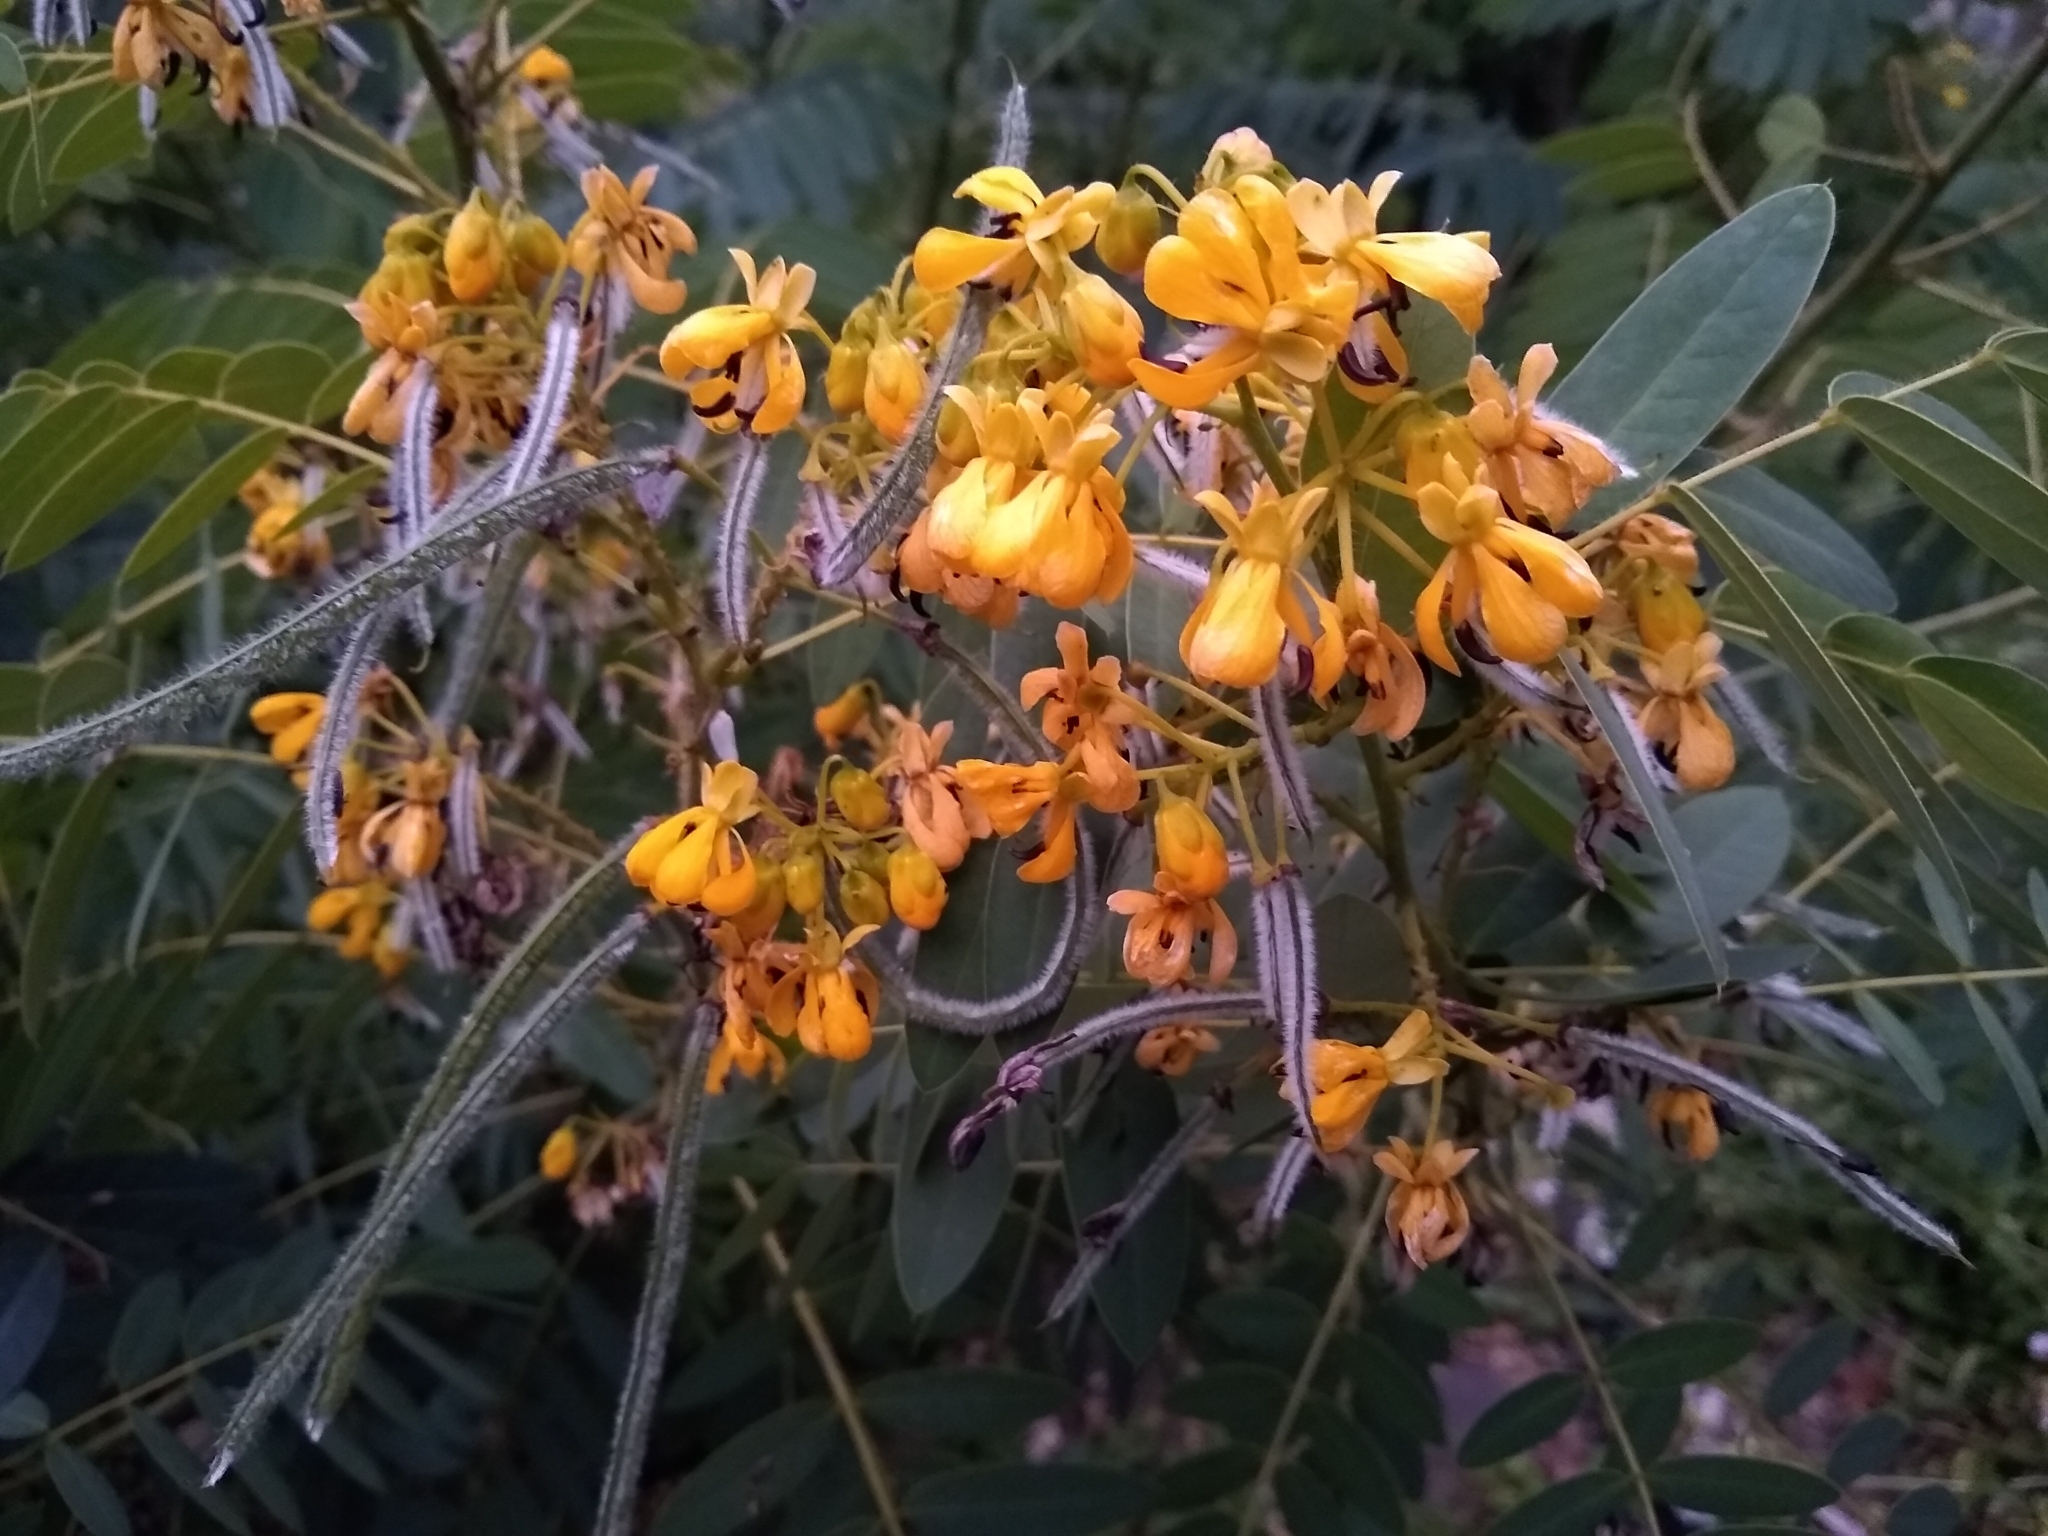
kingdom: Plantae
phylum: Tracheophyta
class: Magnoliopsida
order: Fabales
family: Fabaceae
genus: Senna
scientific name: Senna hebecarpa
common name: Wild senna
